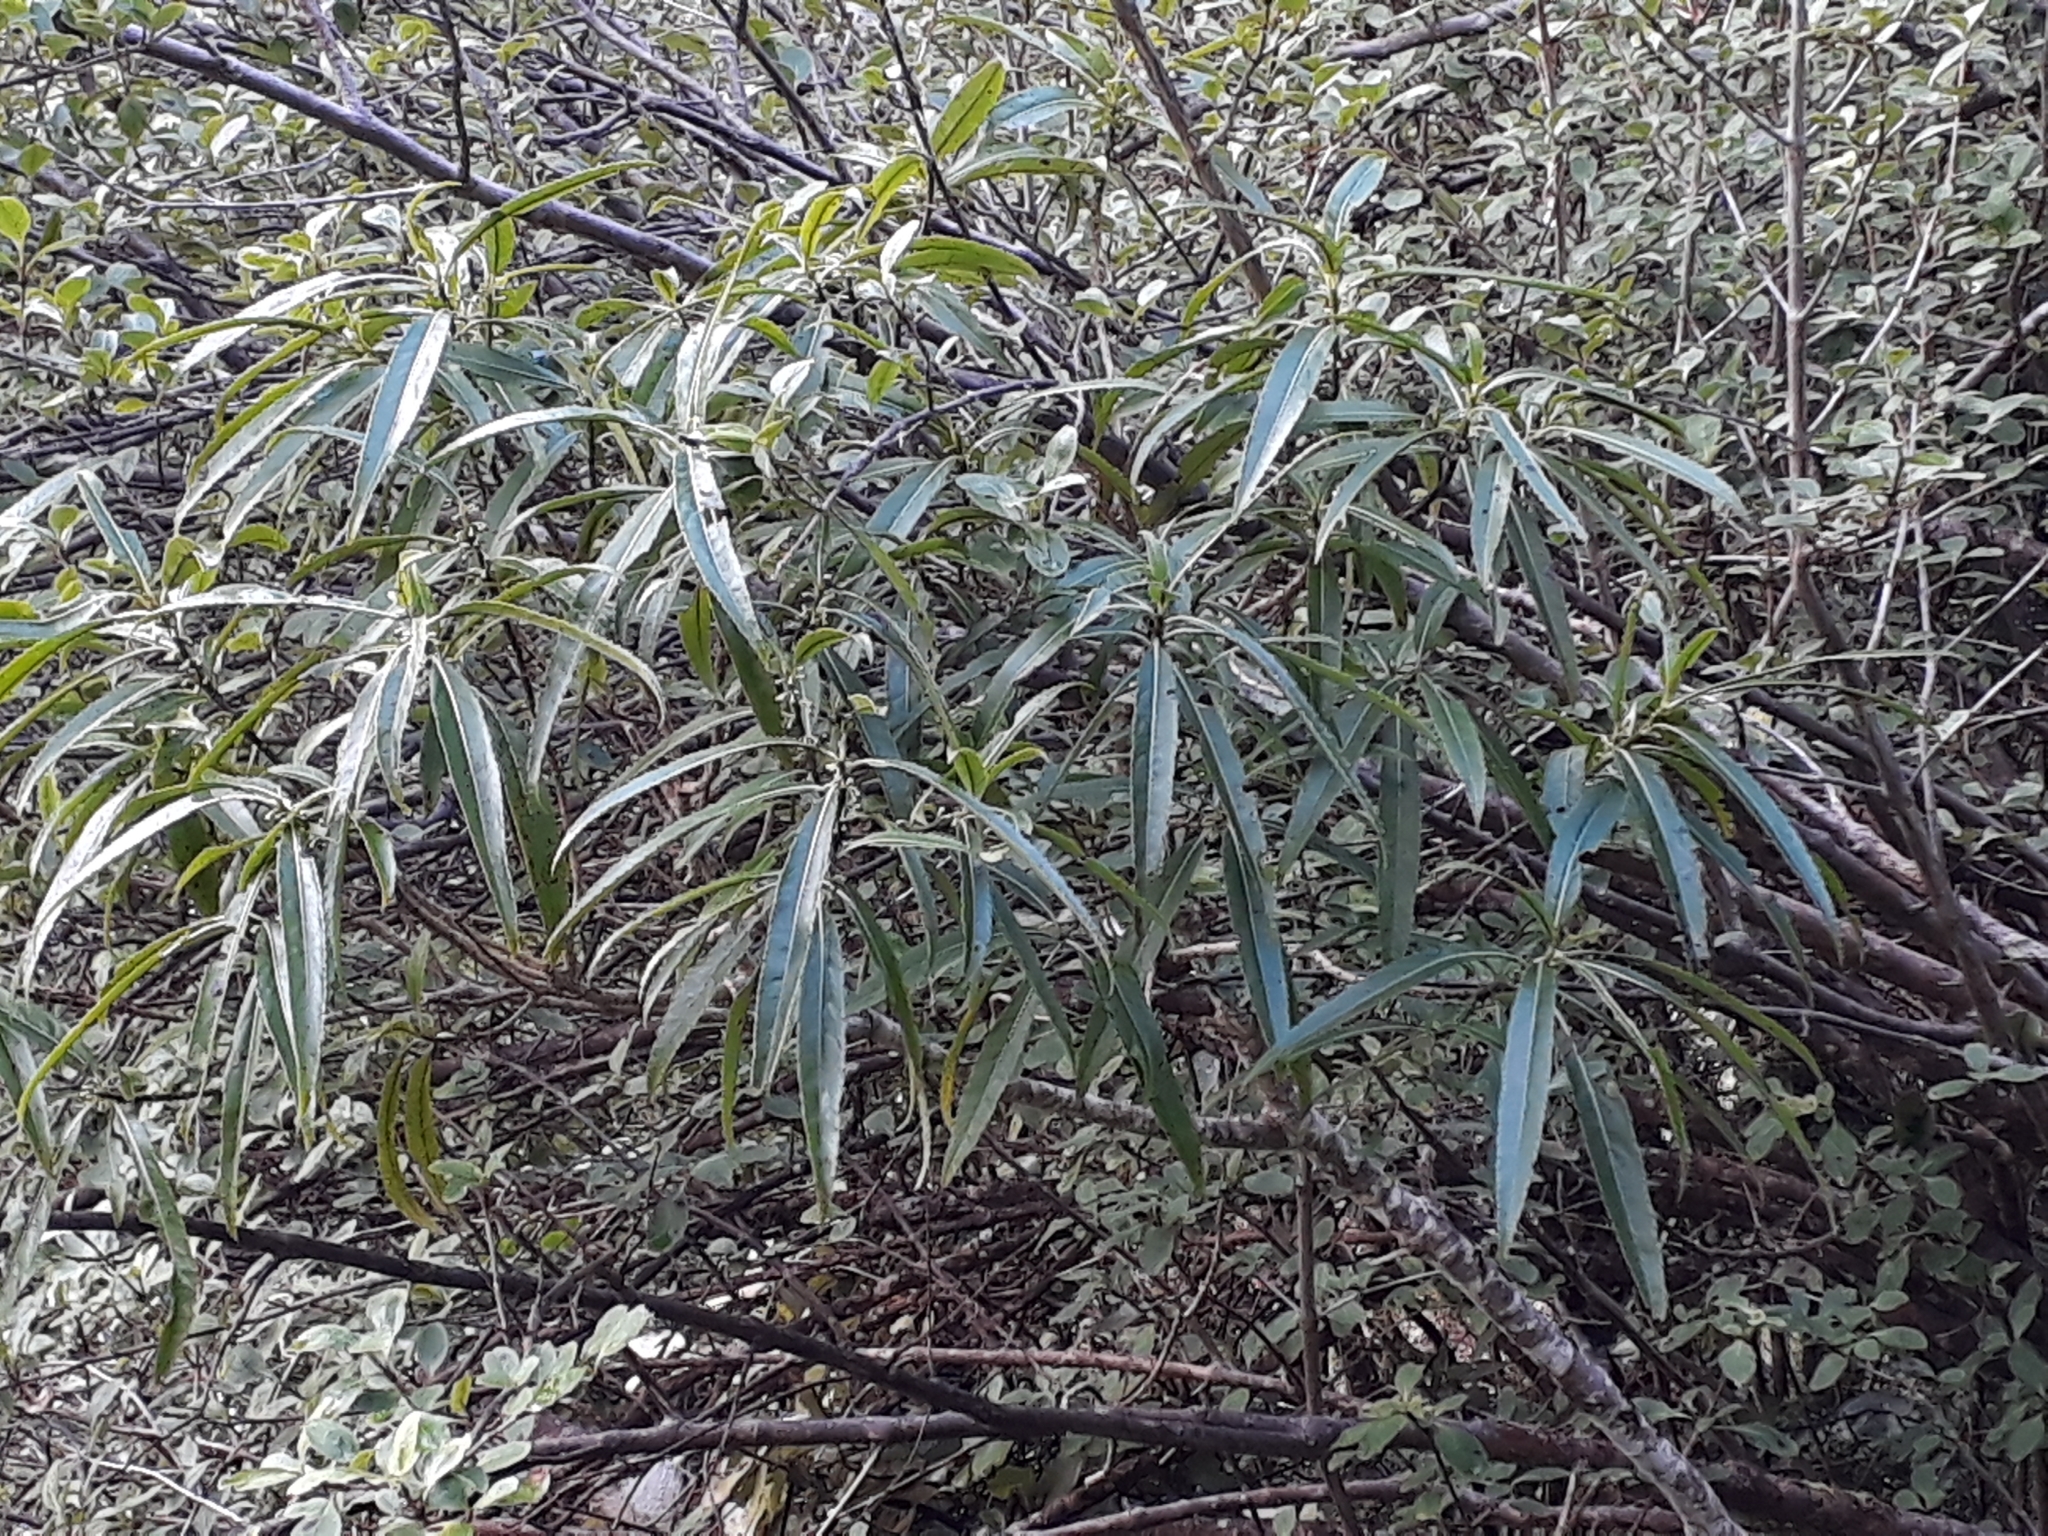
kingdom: Plantae
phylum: Tracheophyta
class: Magnoliopsida
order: Malpighiales
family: Violaceae
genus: Melicytus
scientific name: Melicytus lanceolatus
